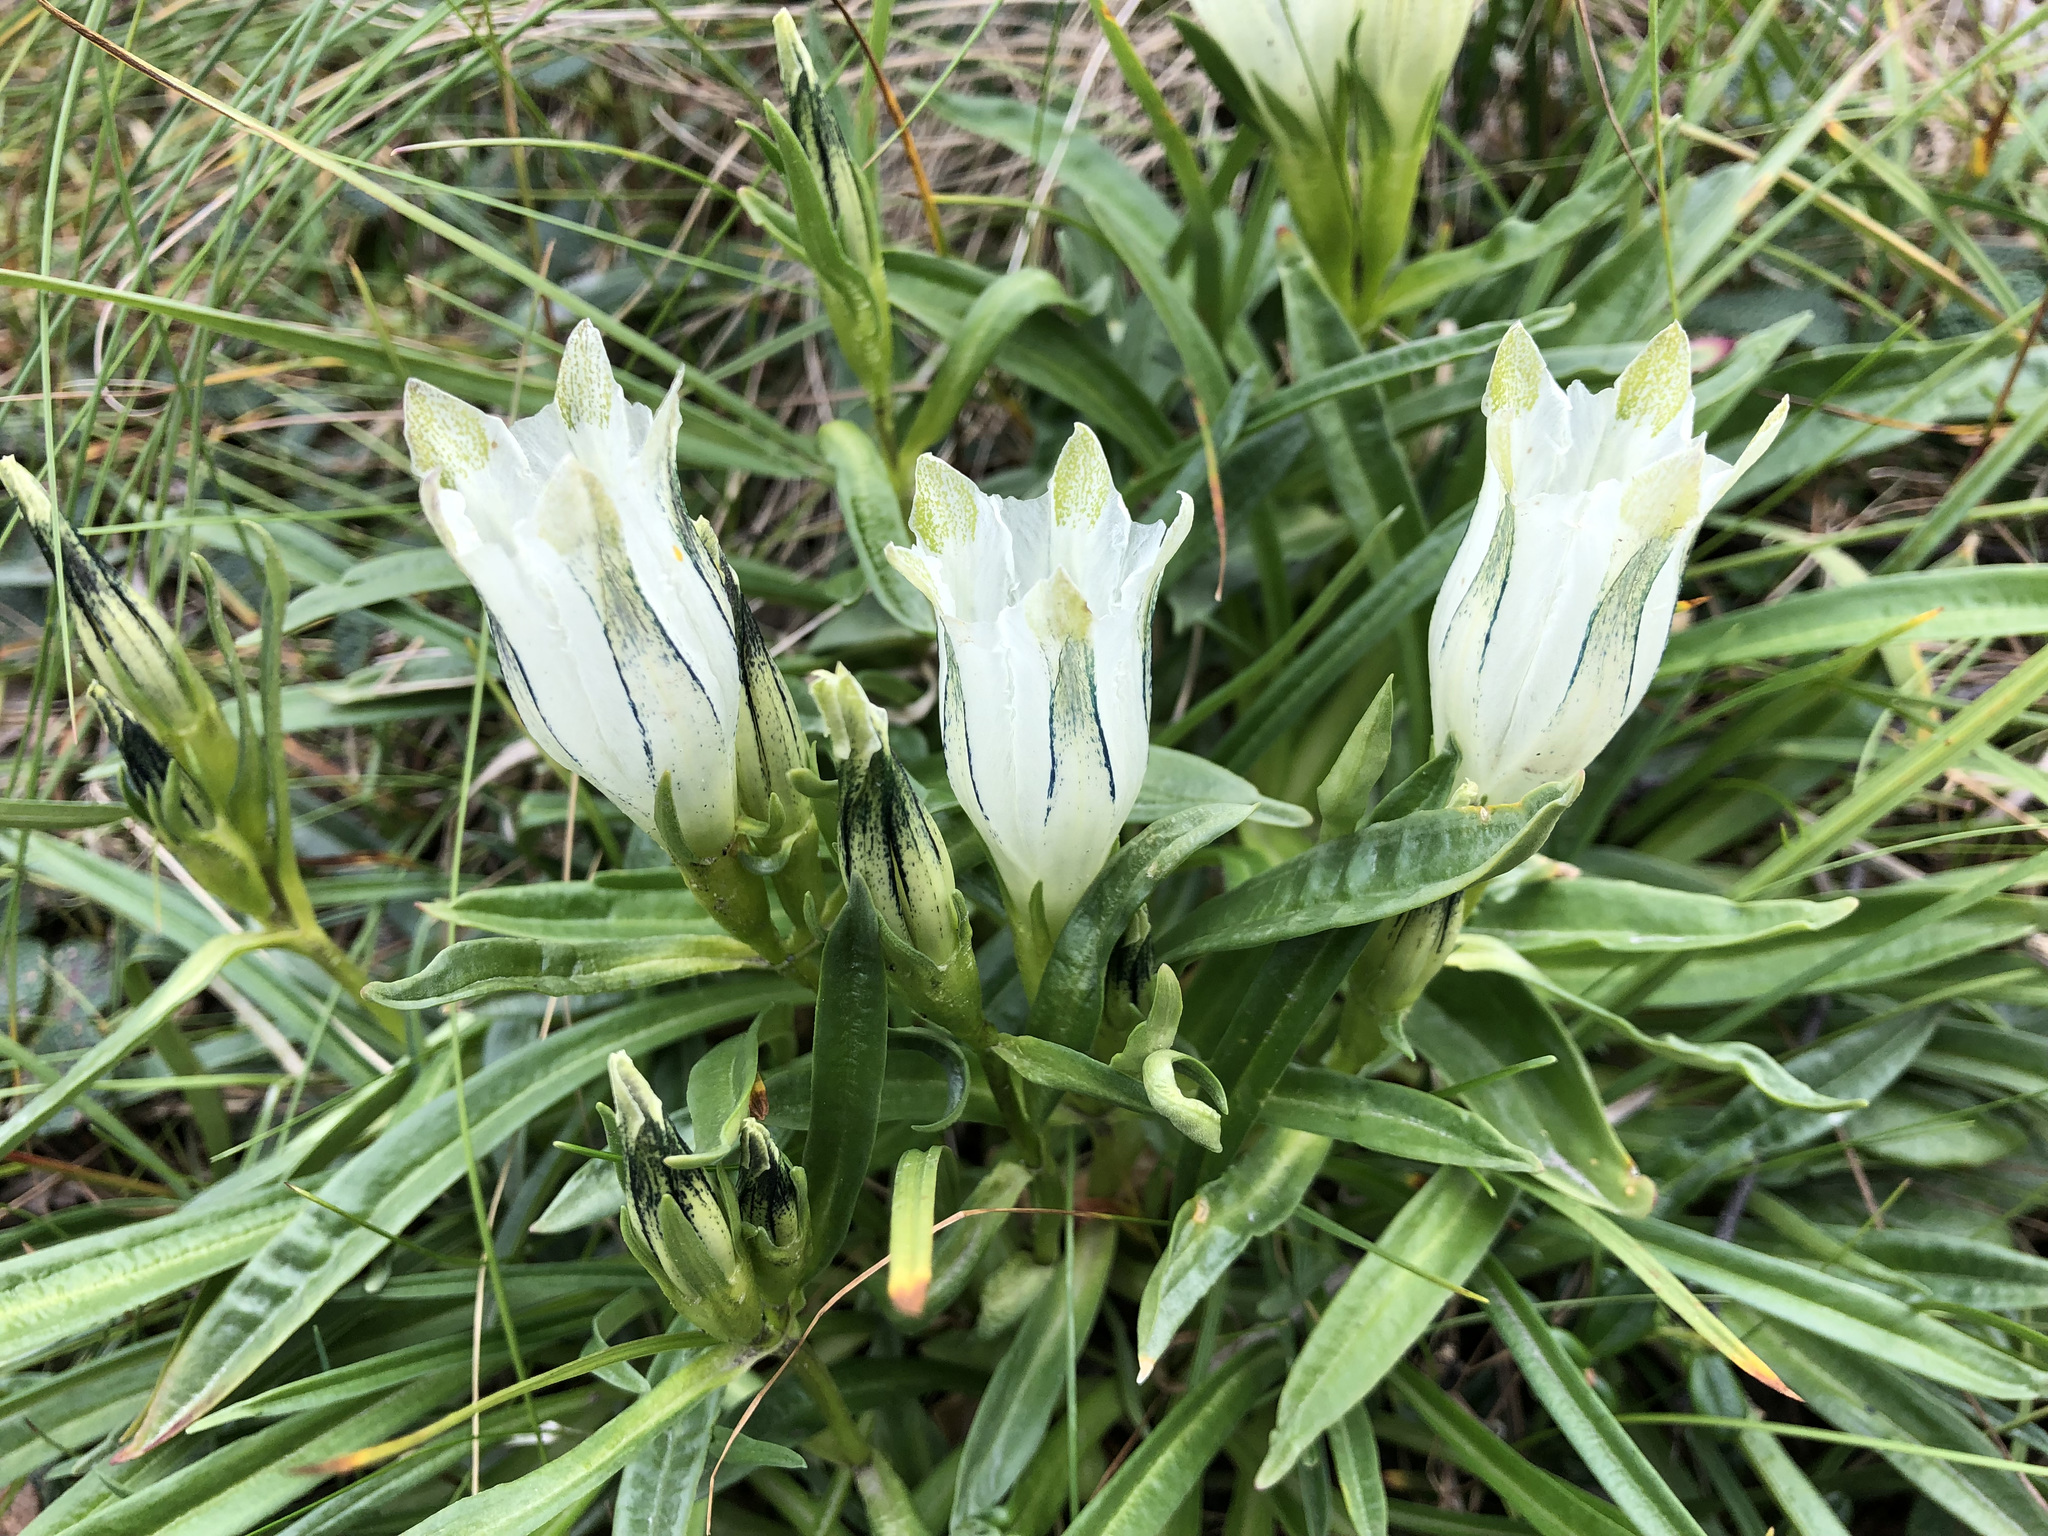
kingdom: Plantae
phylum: Tracheophyta
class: Magnoliopsida
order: Gentianales
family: Gentianaceae
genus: Gentiana
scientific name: Gentiana algida
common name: Arctic gentian
